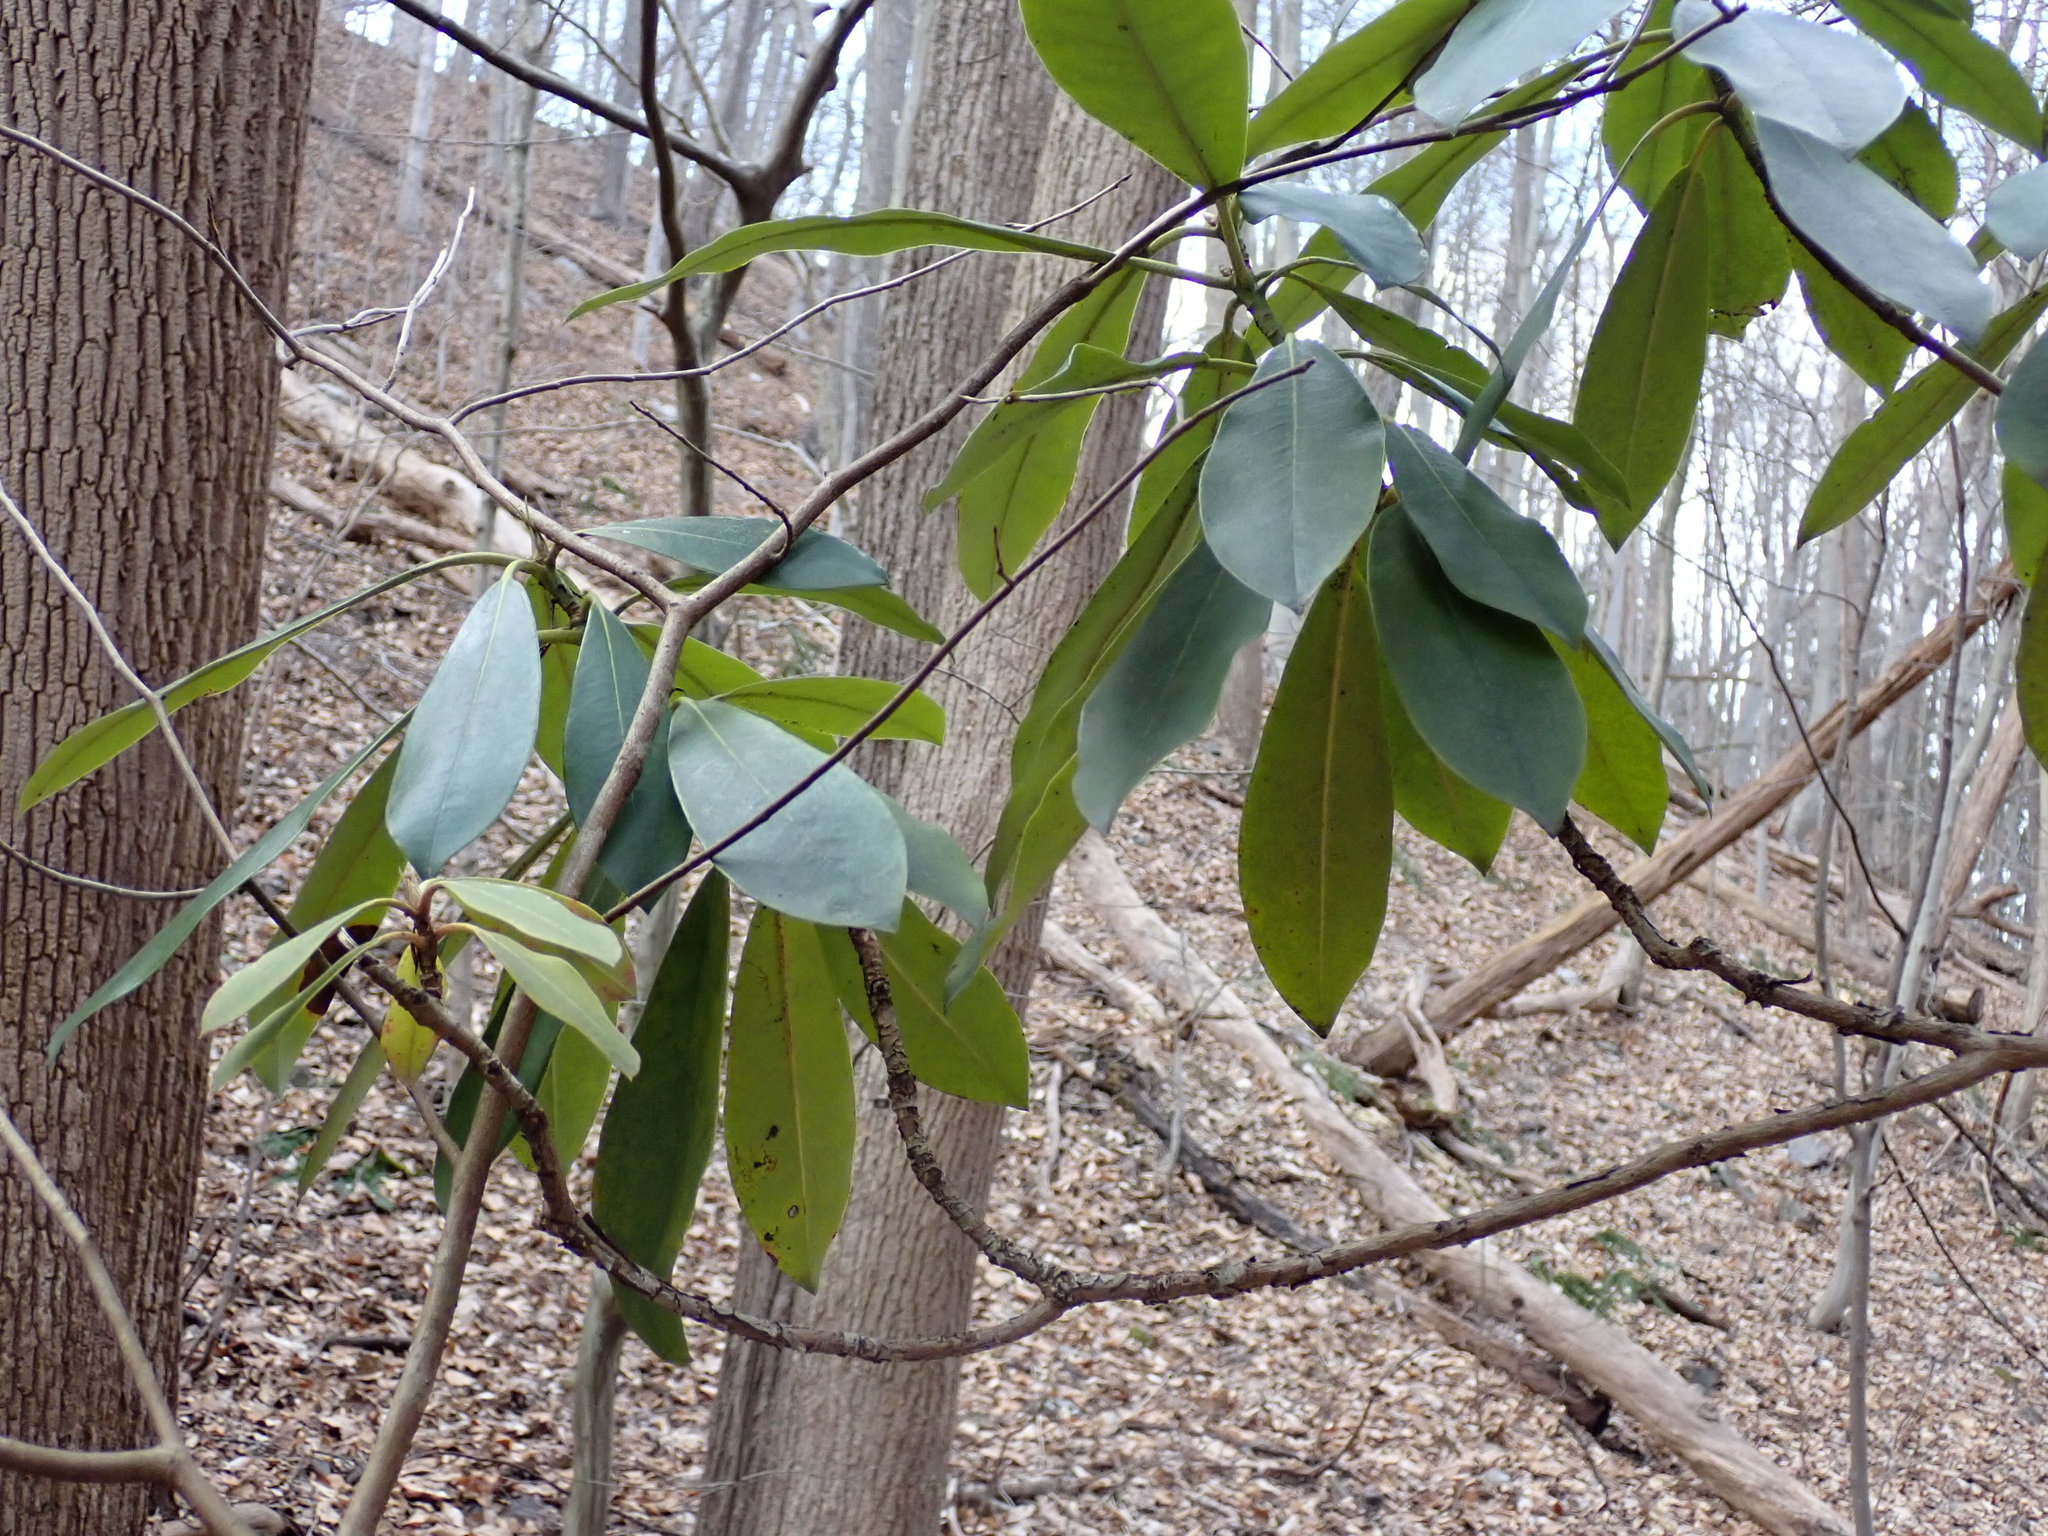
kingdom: Plantae
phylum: Tracheophyta
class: Magnoliopsida
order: Ericales
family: Ericaceae
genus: Rhododendron
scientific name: Rhododendron maximum
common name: Great rhododendron
